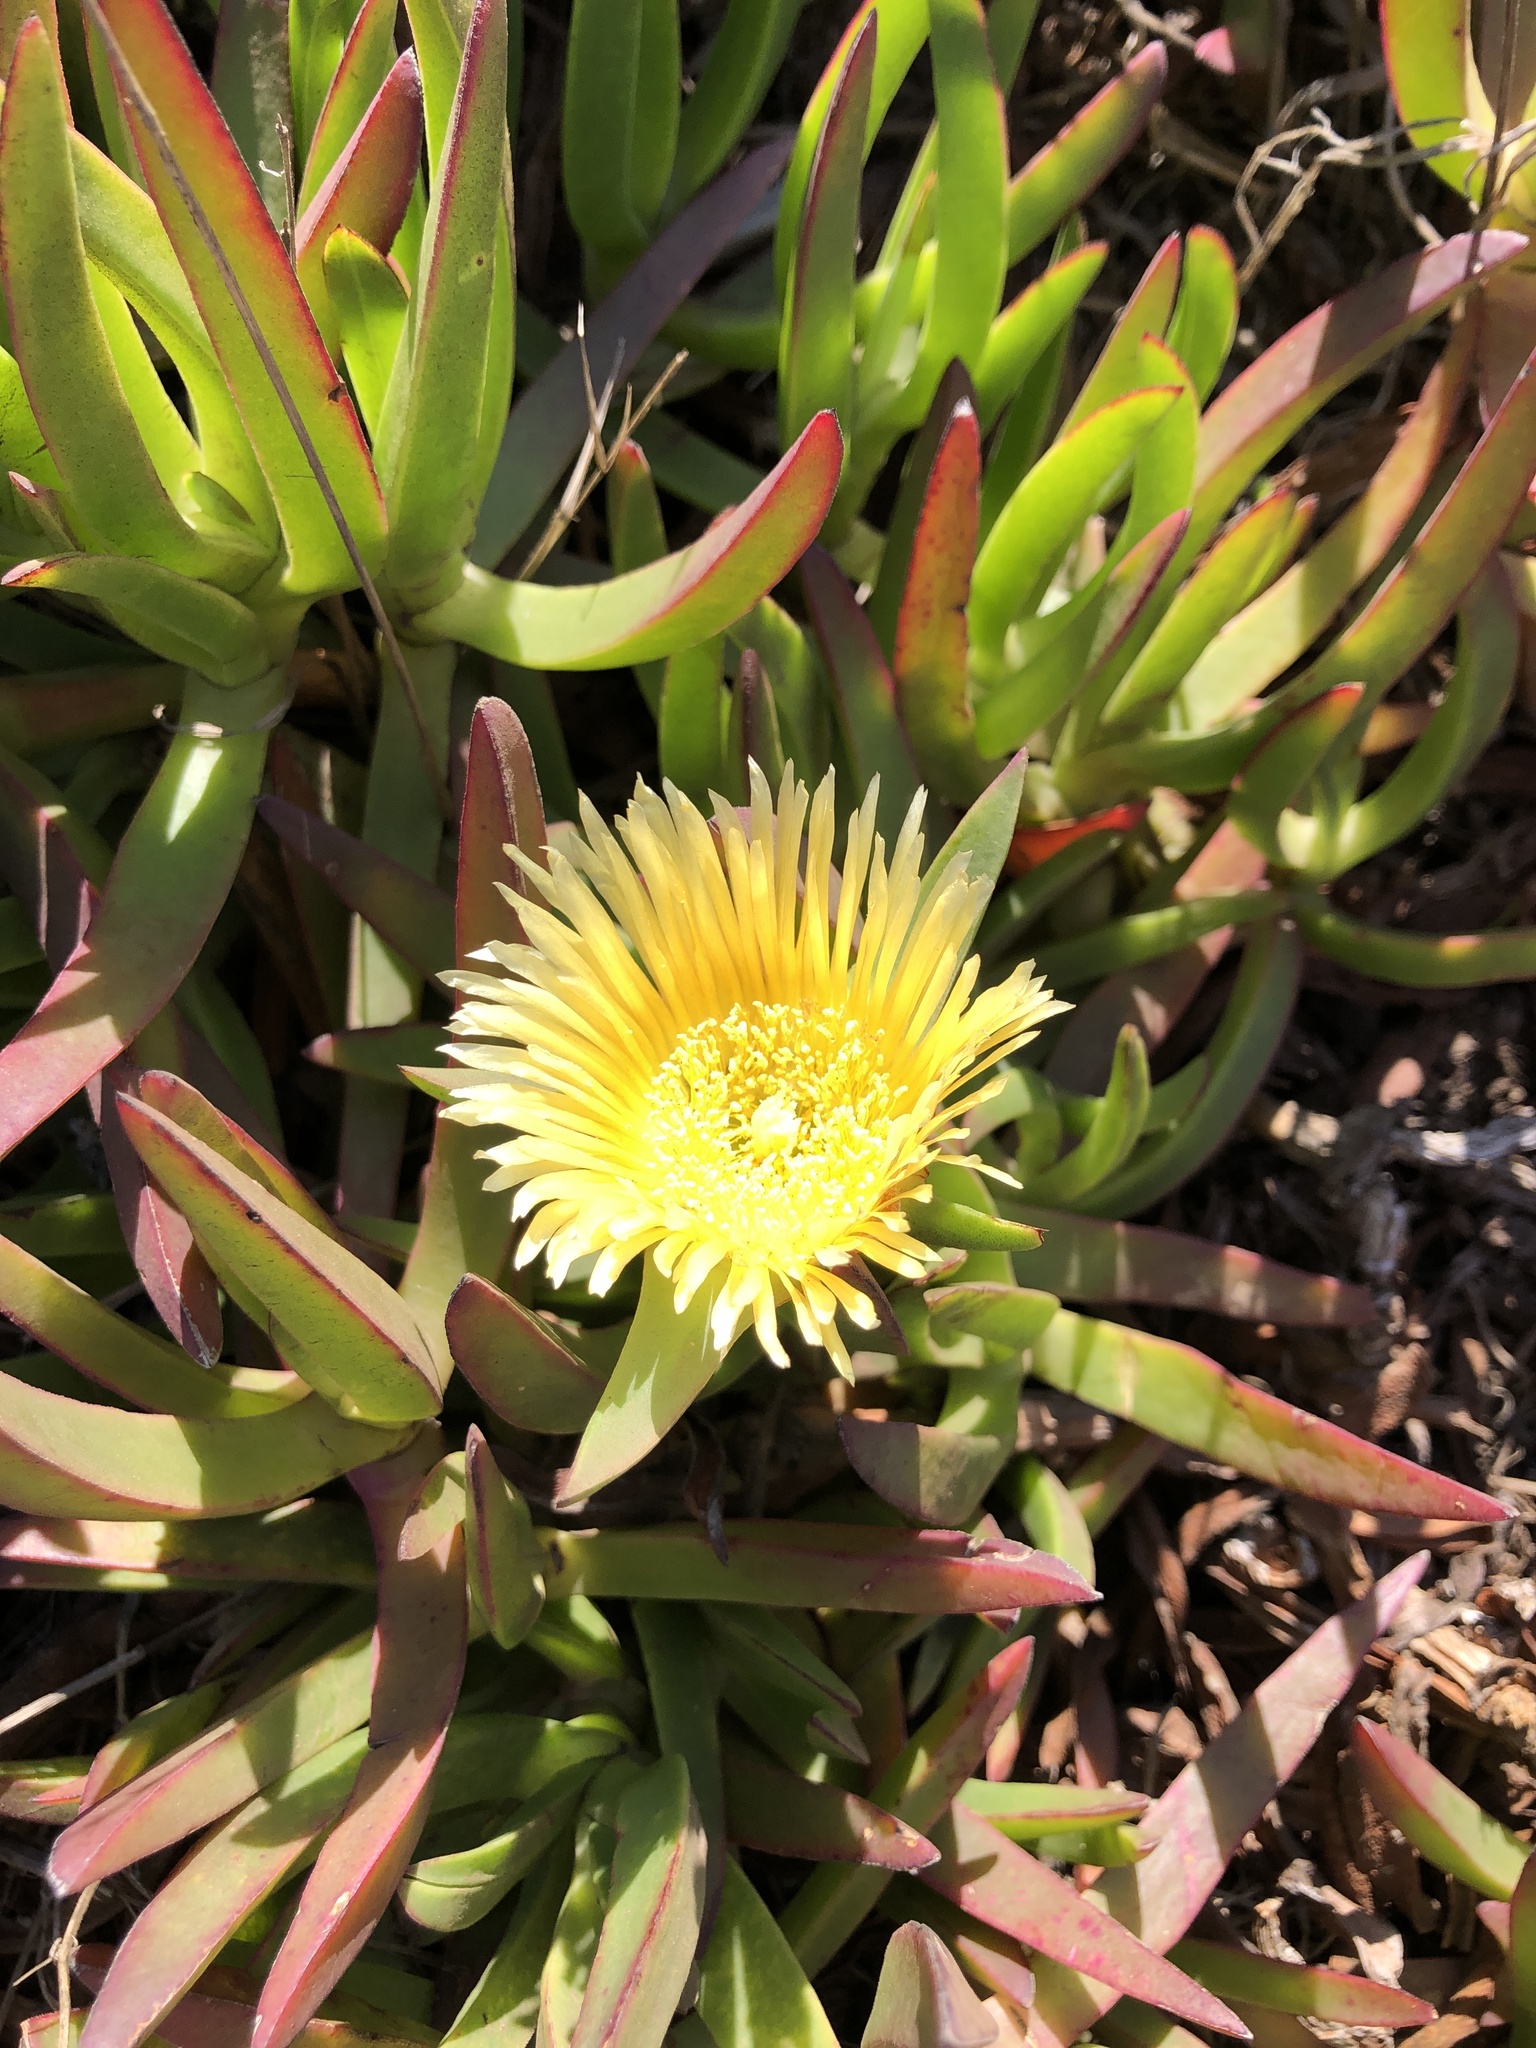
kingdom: Plantae
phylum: Tracheophyta
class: Magnoliopsida
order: Caryophyllales
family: Aizoaceae
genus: Carpobrotus
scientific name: Carpobrotus edulis
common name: Hottentot-fig
